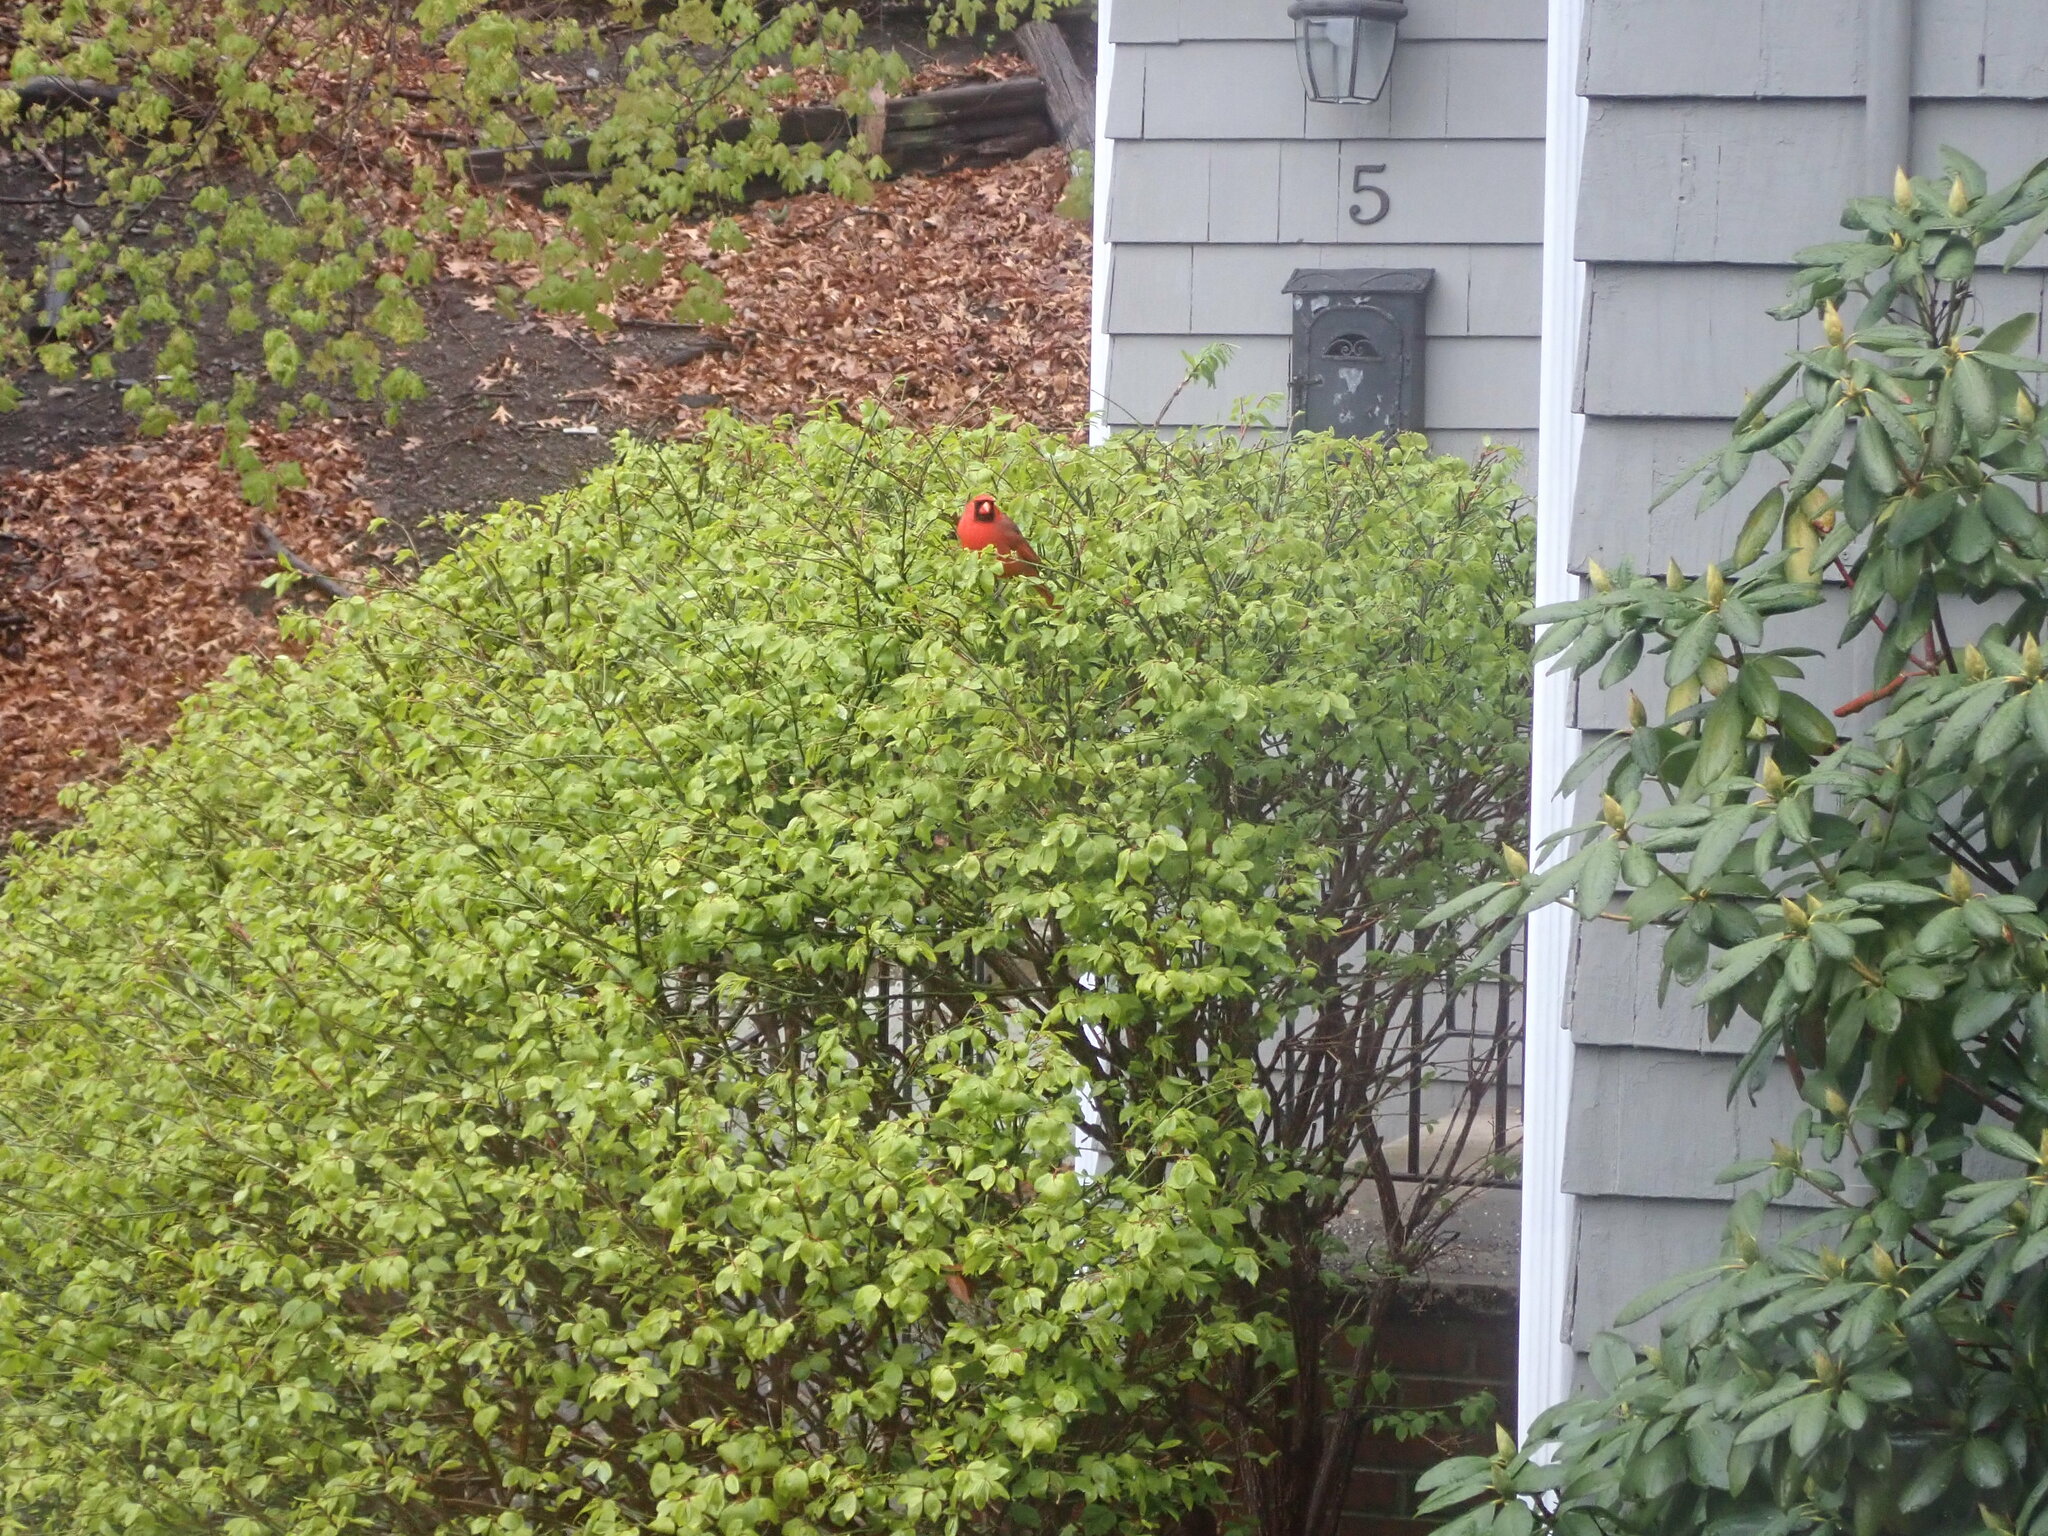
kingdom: Animalia
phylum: Chordata
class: Aves
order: Passeriformes
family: Cardinalidae
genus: Cardinalis
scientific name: Cardinalis cardinalis
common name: Northern cardinal
